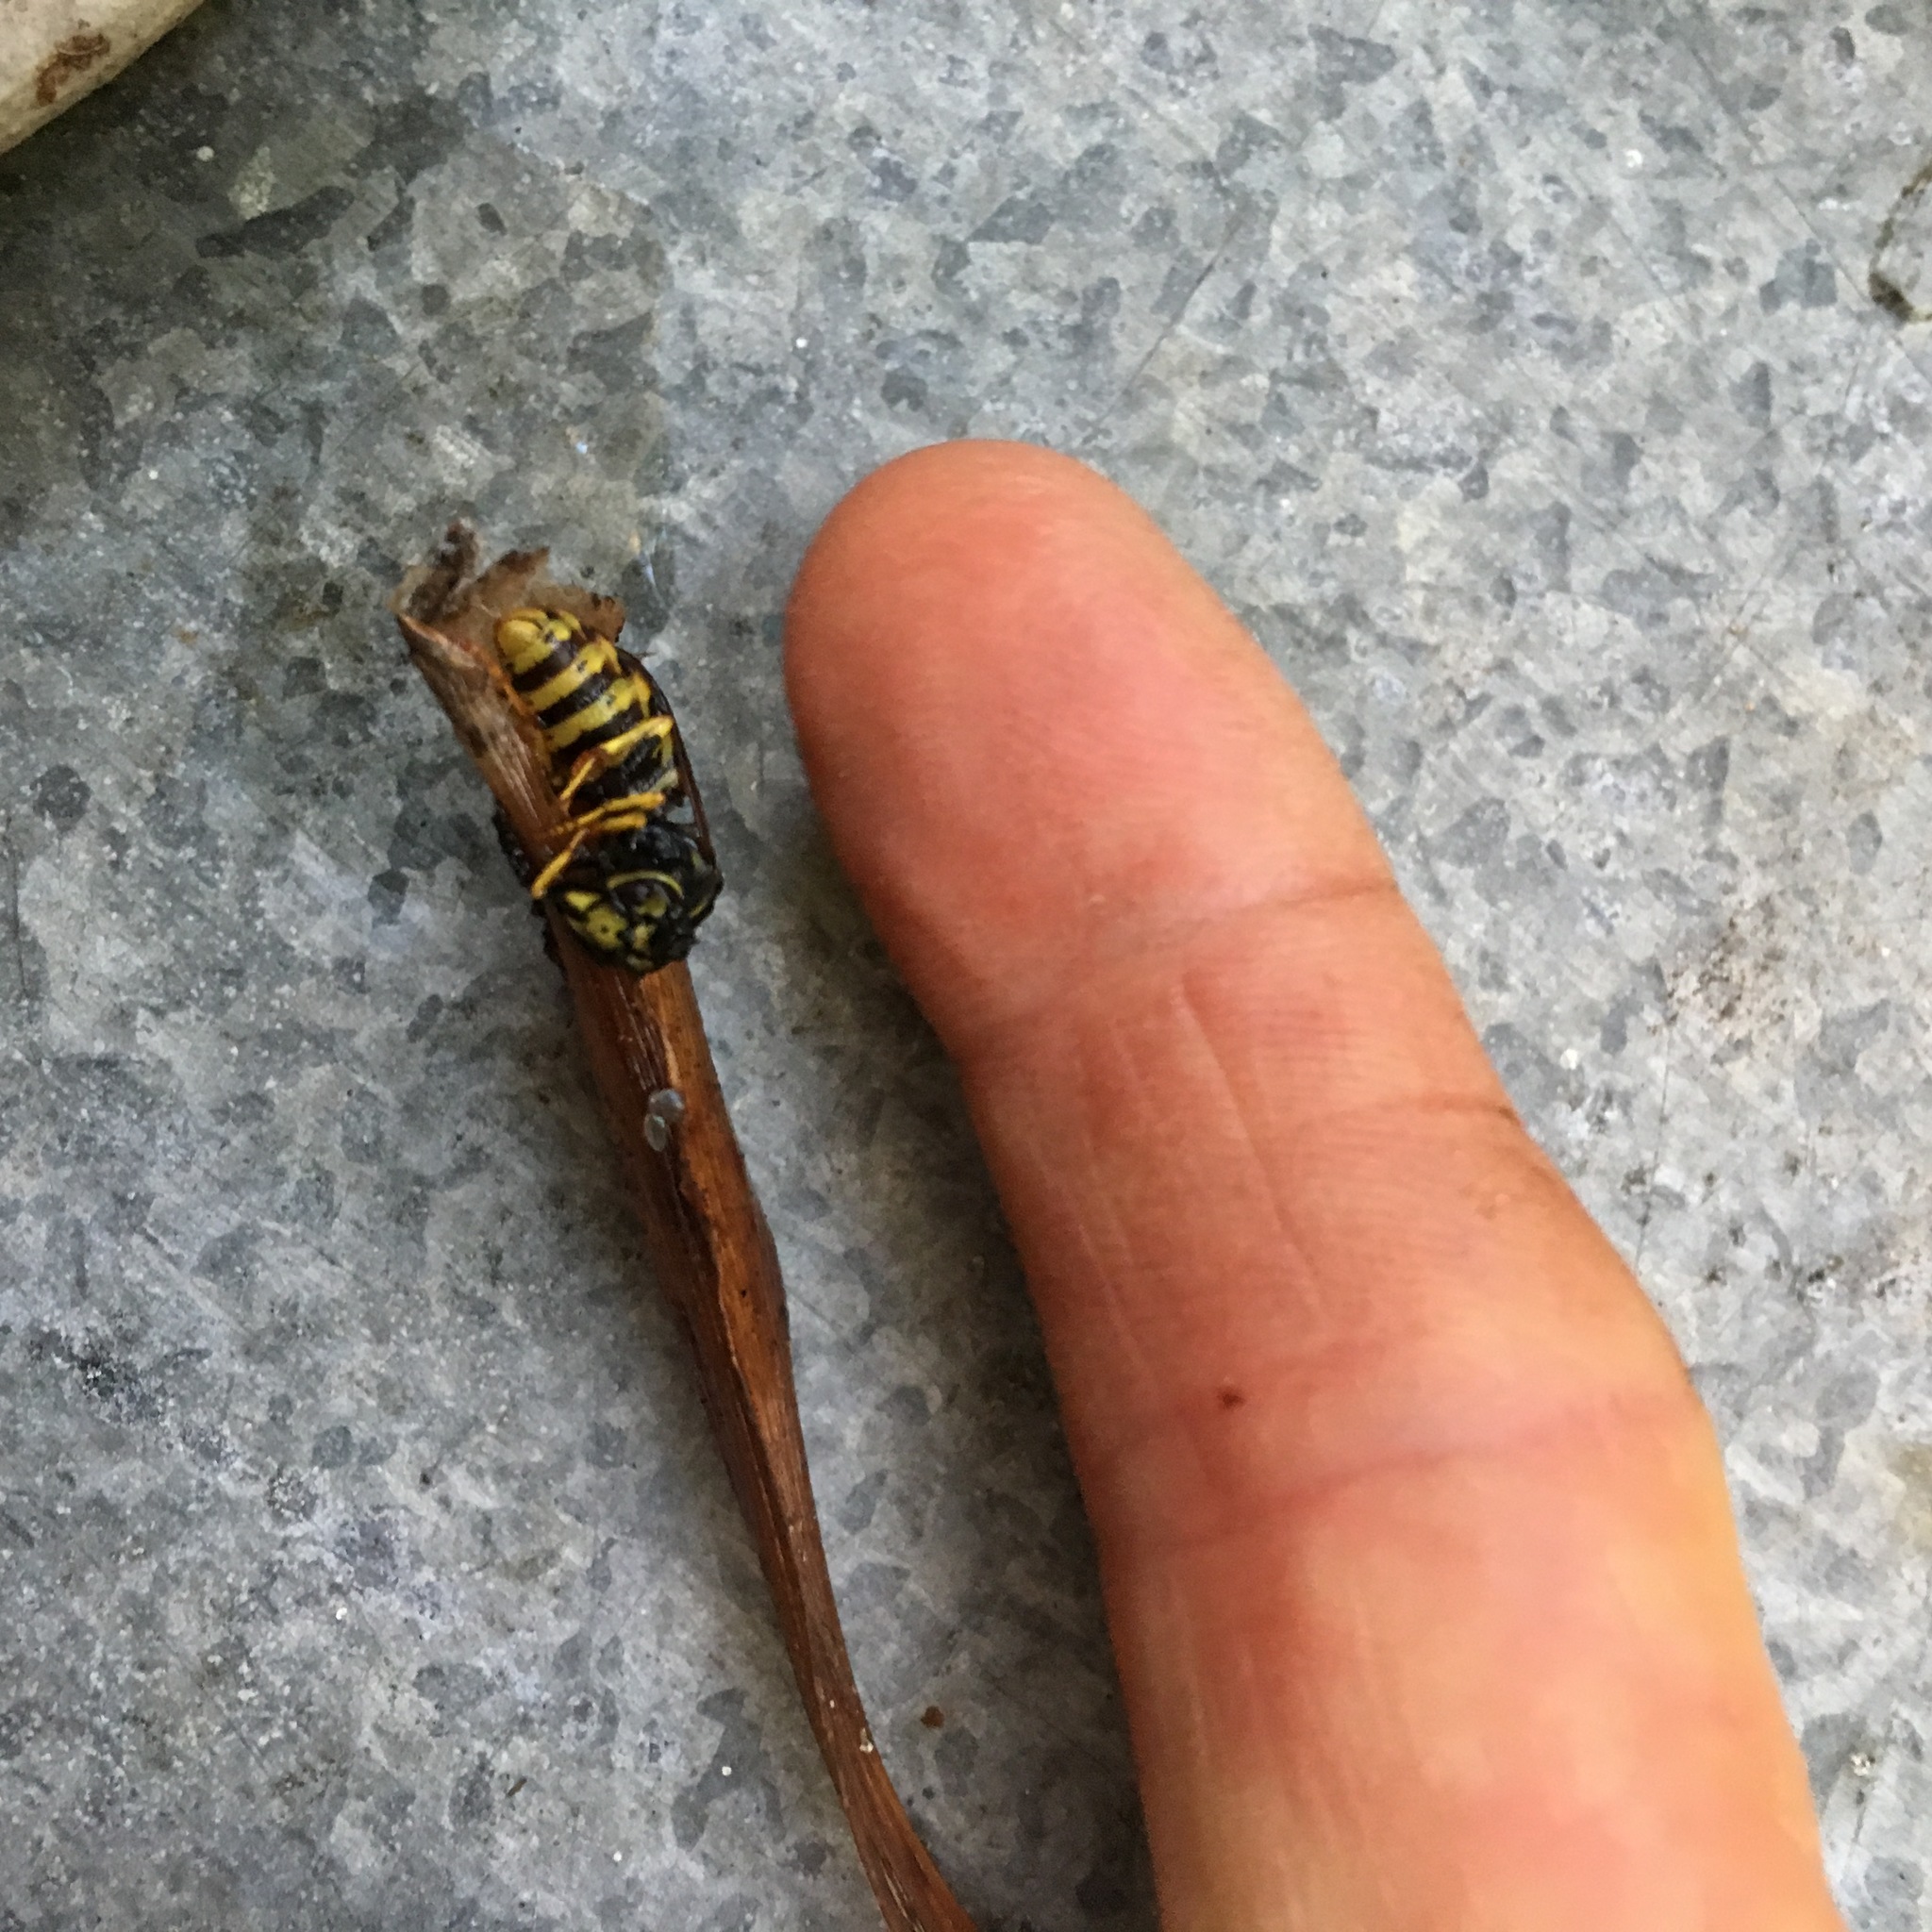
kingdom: Animalia
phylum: Arthropoda
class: Insecta
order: Hymenoptera
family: Vespidae
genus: Vespula
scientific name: Vespula germanica
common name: German wasp
